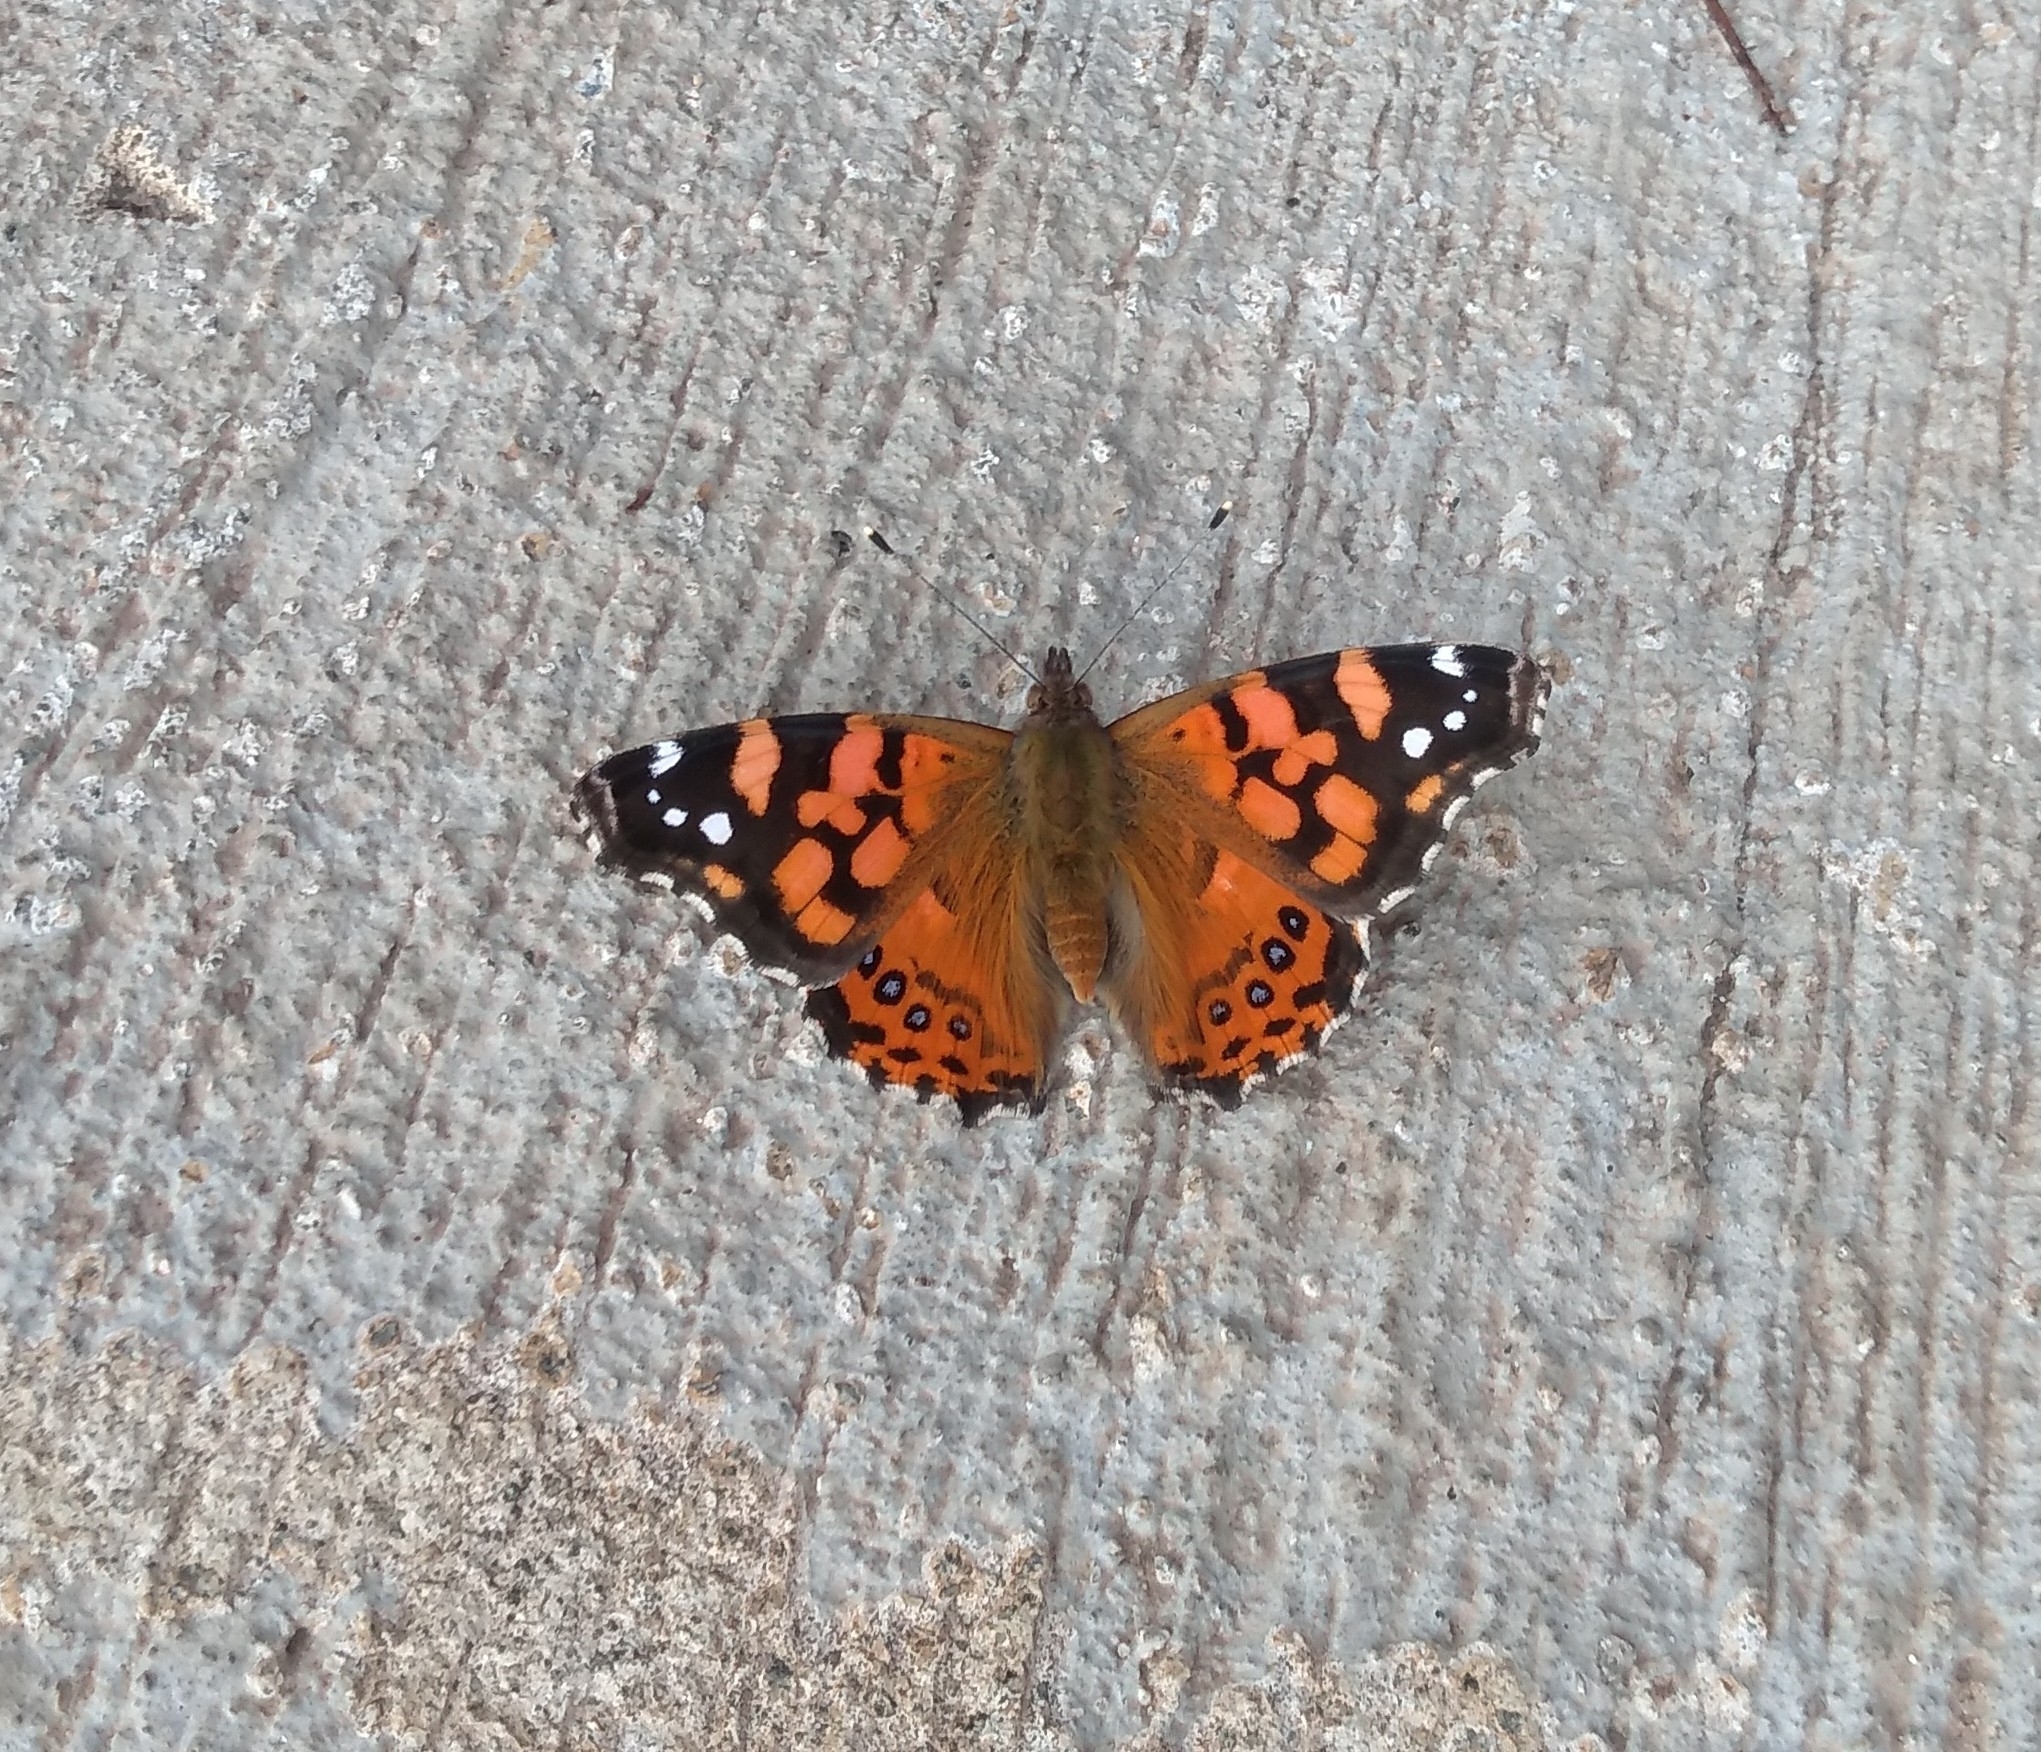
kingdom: Animalia
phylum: Arthropoda
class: Insecta
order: Lepidoptera
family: Nymphalidae
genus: Vanessa
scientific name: Vanessa carye
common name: Subtropical lady
